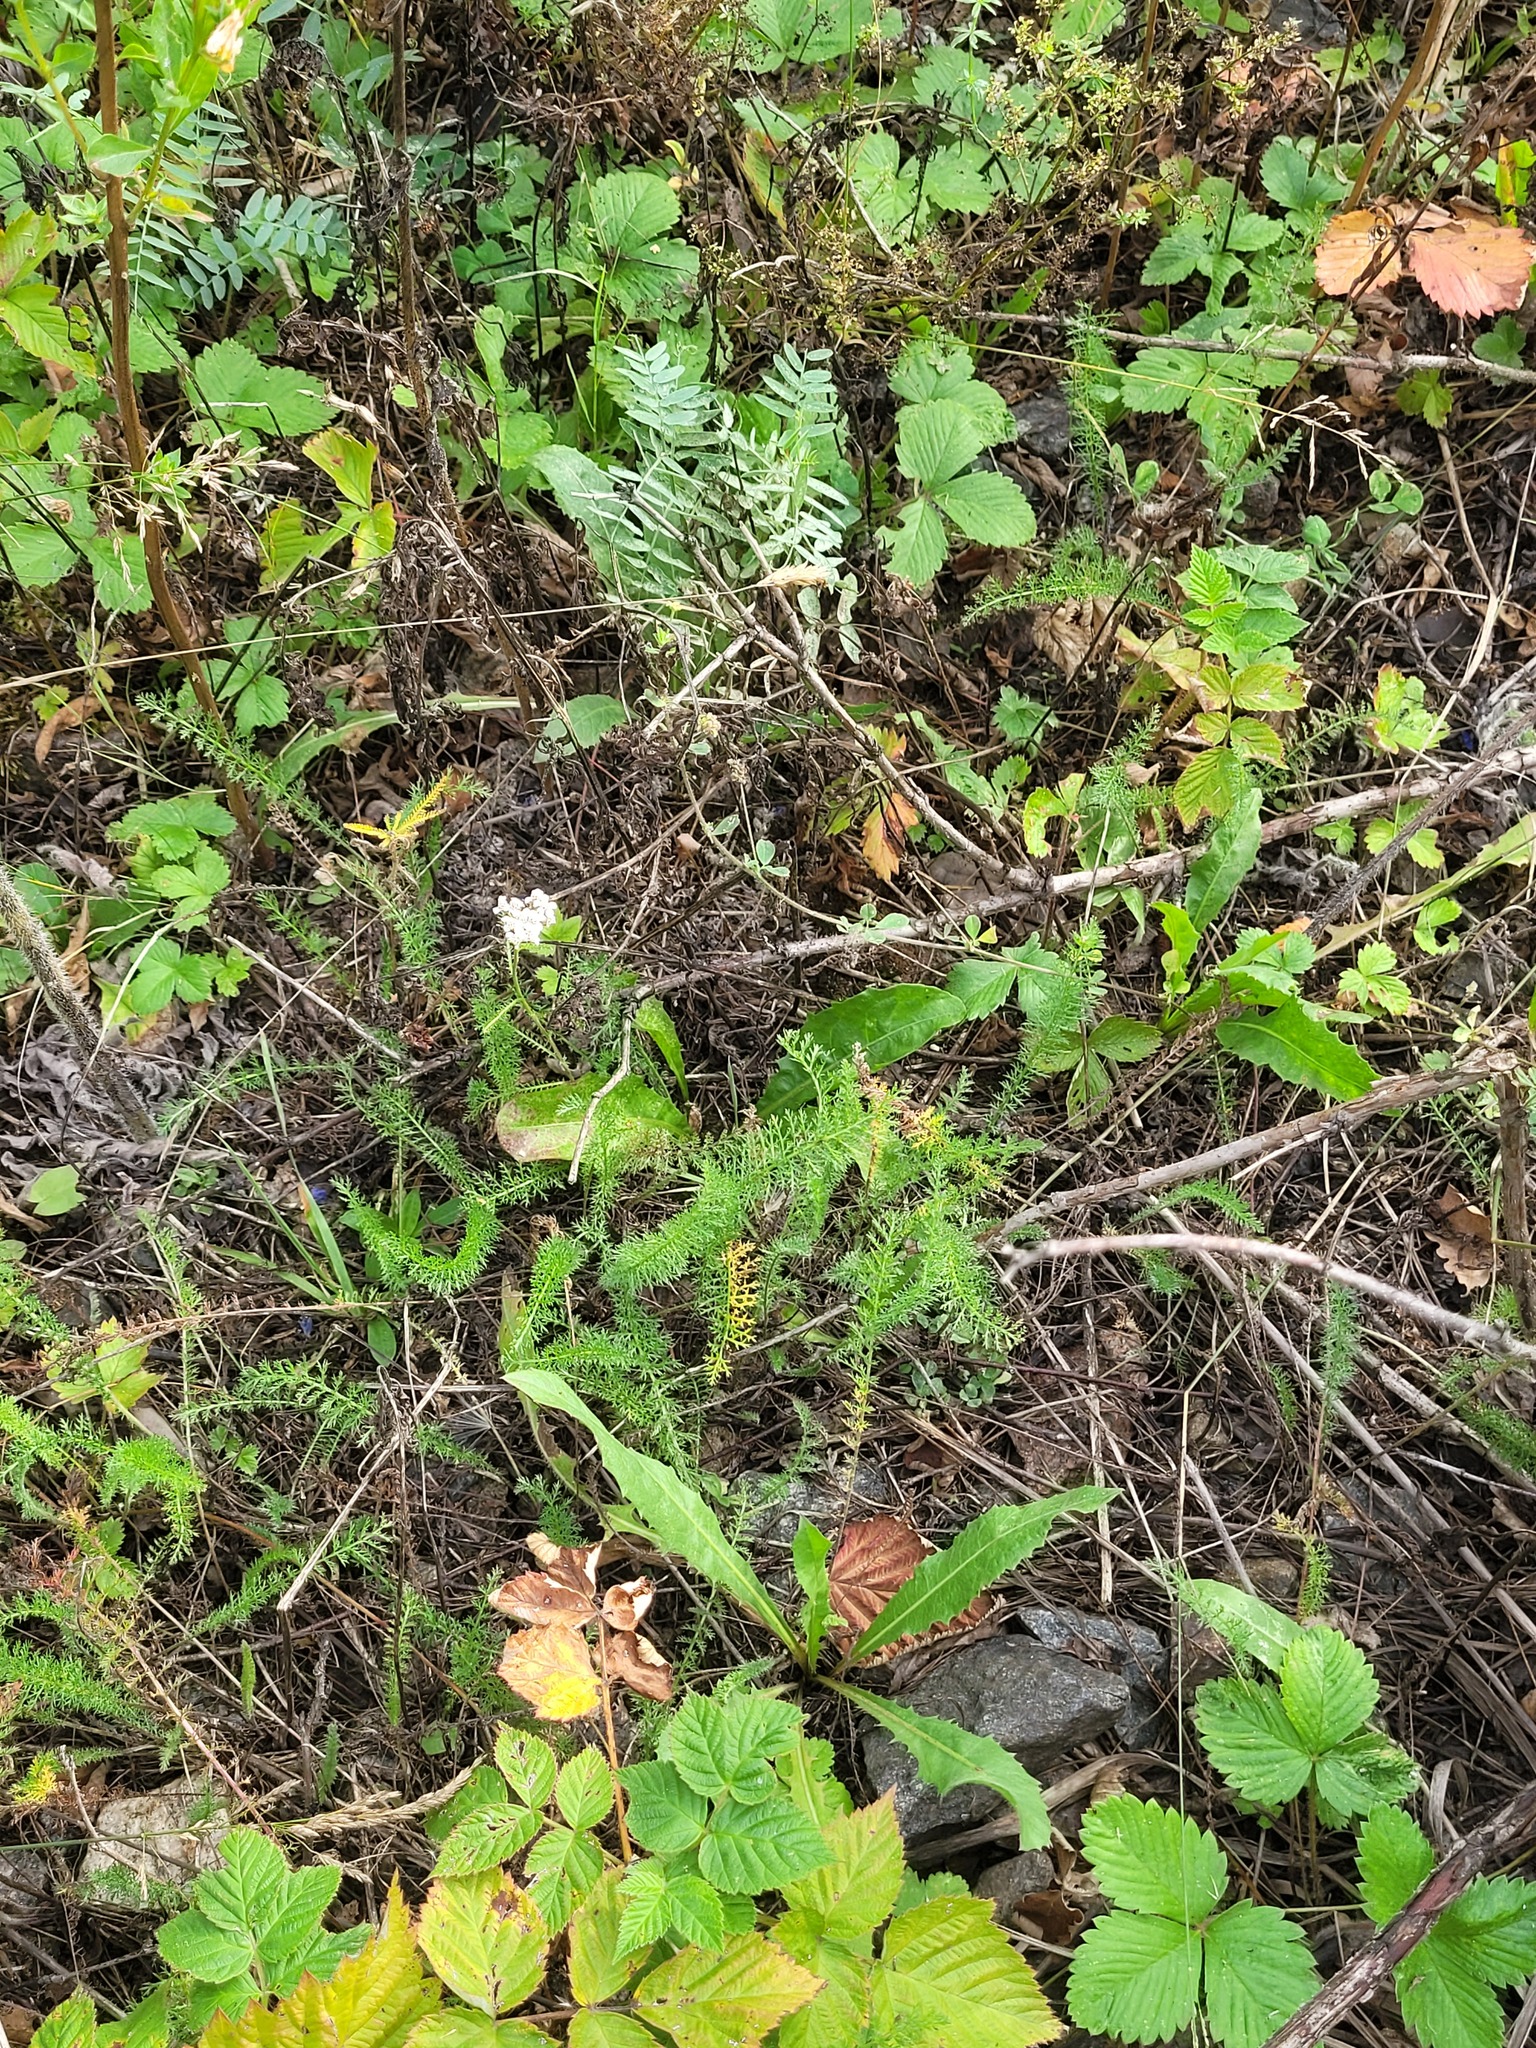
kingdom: Plantae
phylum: Tracheophyta
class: Magnoliopsida
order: Asterales
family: Asteraceae
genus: Achillea
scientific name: Achillea millefolium
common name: Yarrow
